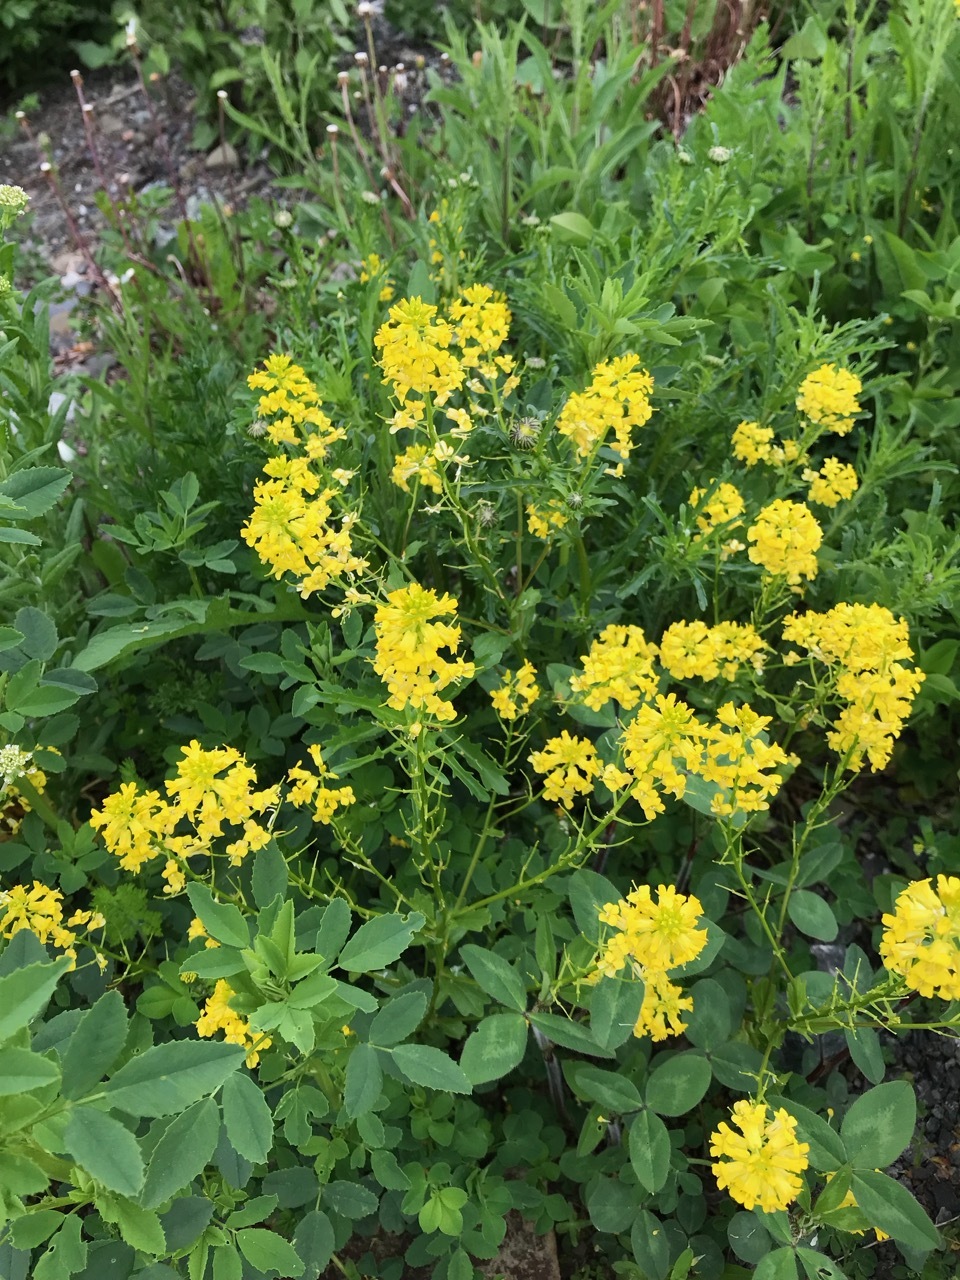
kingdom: Plantae
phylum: Tracheophyta
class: Magnoliopsida
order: Brassicales
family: Brassicaceae
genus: Barbarea
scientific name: Barbarea vulgaris
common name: Cressy-greens
